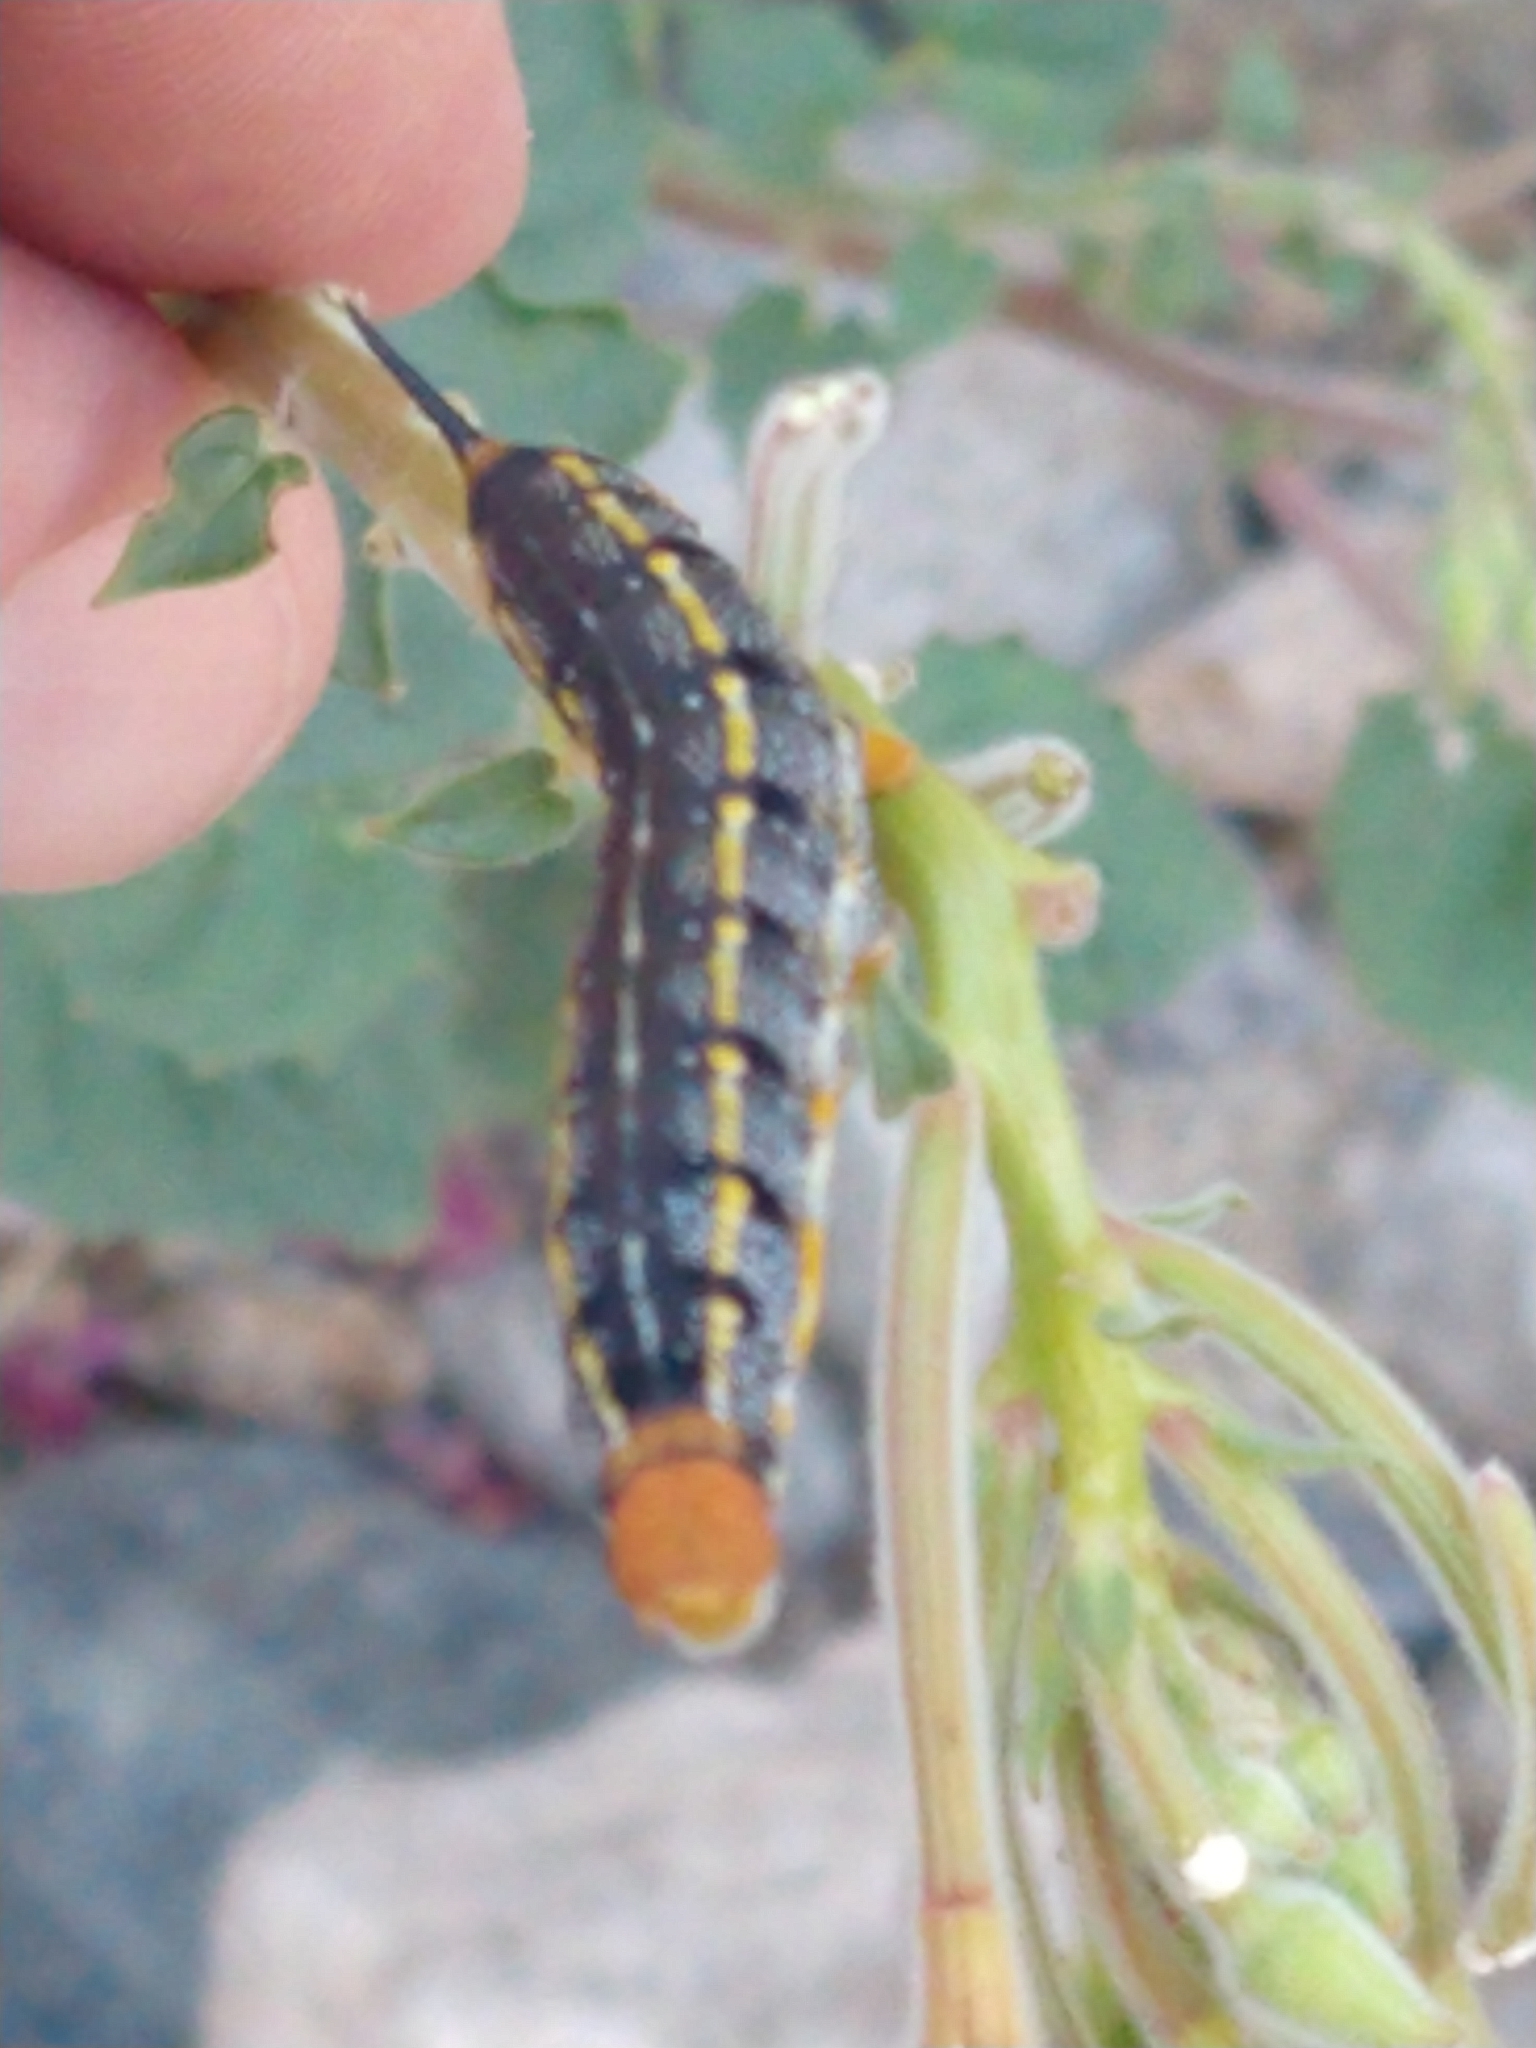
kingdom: Animalia
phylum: Arthropoda
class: Insecta
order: Lepidoptera
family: Sphingidae
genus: Hyles
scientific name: Hyles lineata
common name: White-lined sphinx
